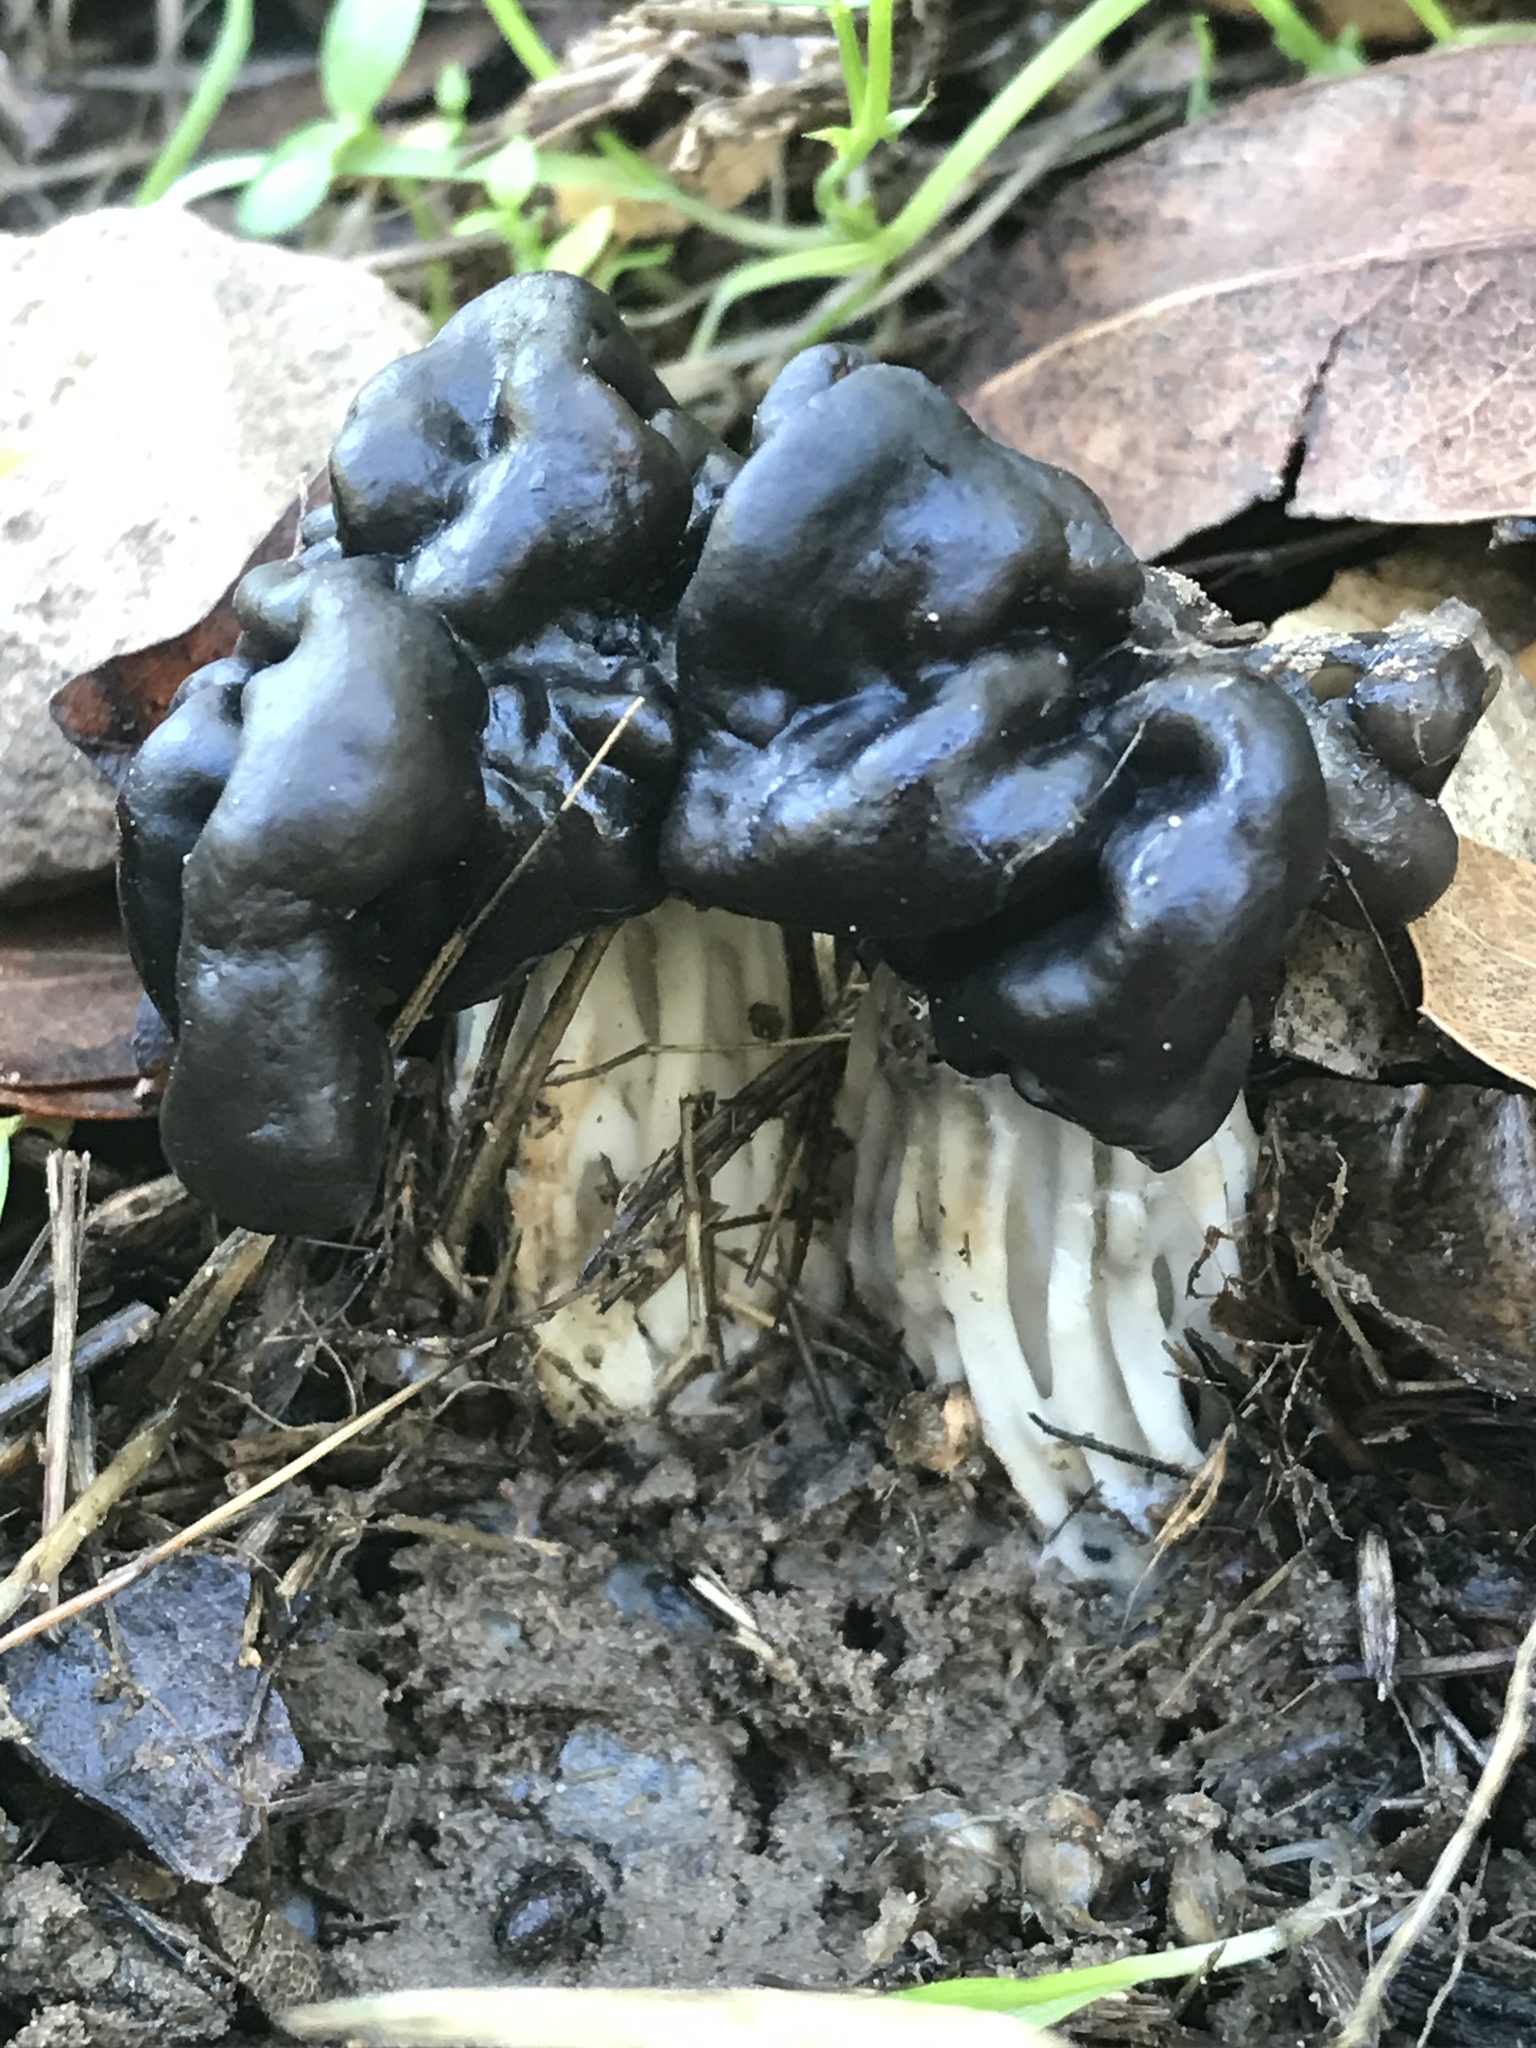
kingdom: Fungi
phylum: Ascomycota
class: Pezizomycetes
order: Pezizales
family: Helvellaceae
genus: Helvella
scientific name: Helvella dryophila
